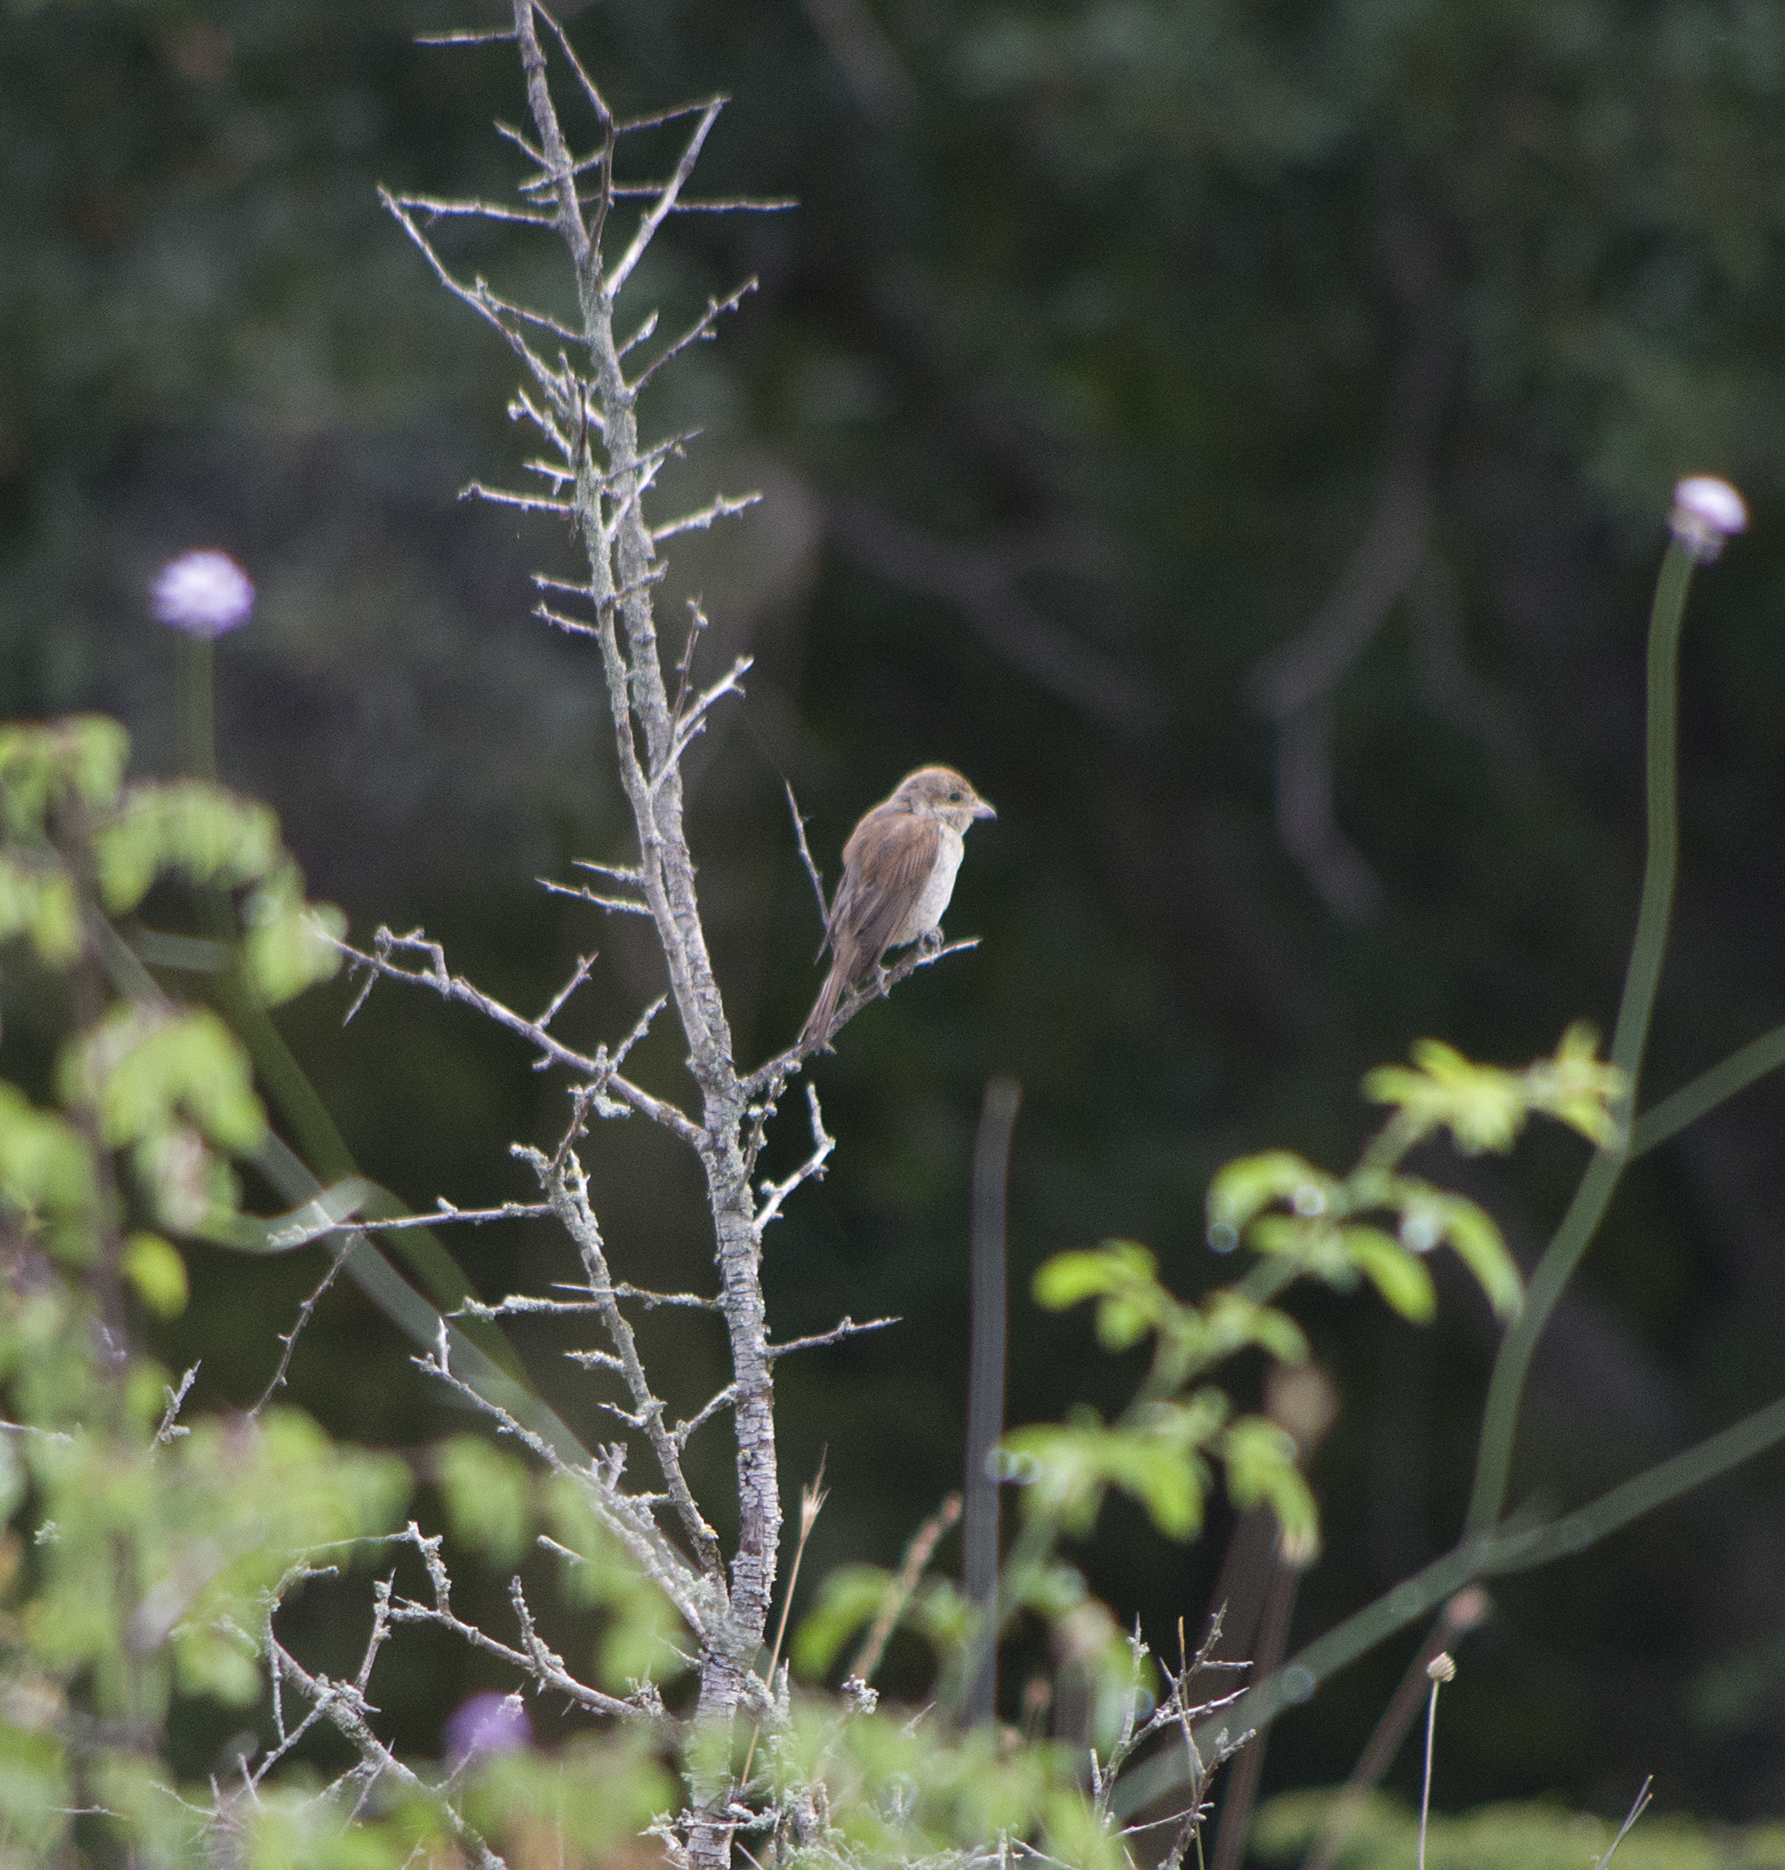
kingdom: Animalia
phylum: Chordata
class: Aves
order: Passeriformes
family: Laniidae
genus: Lanius
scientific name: Lanius collurio
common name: Red-backed shrike
